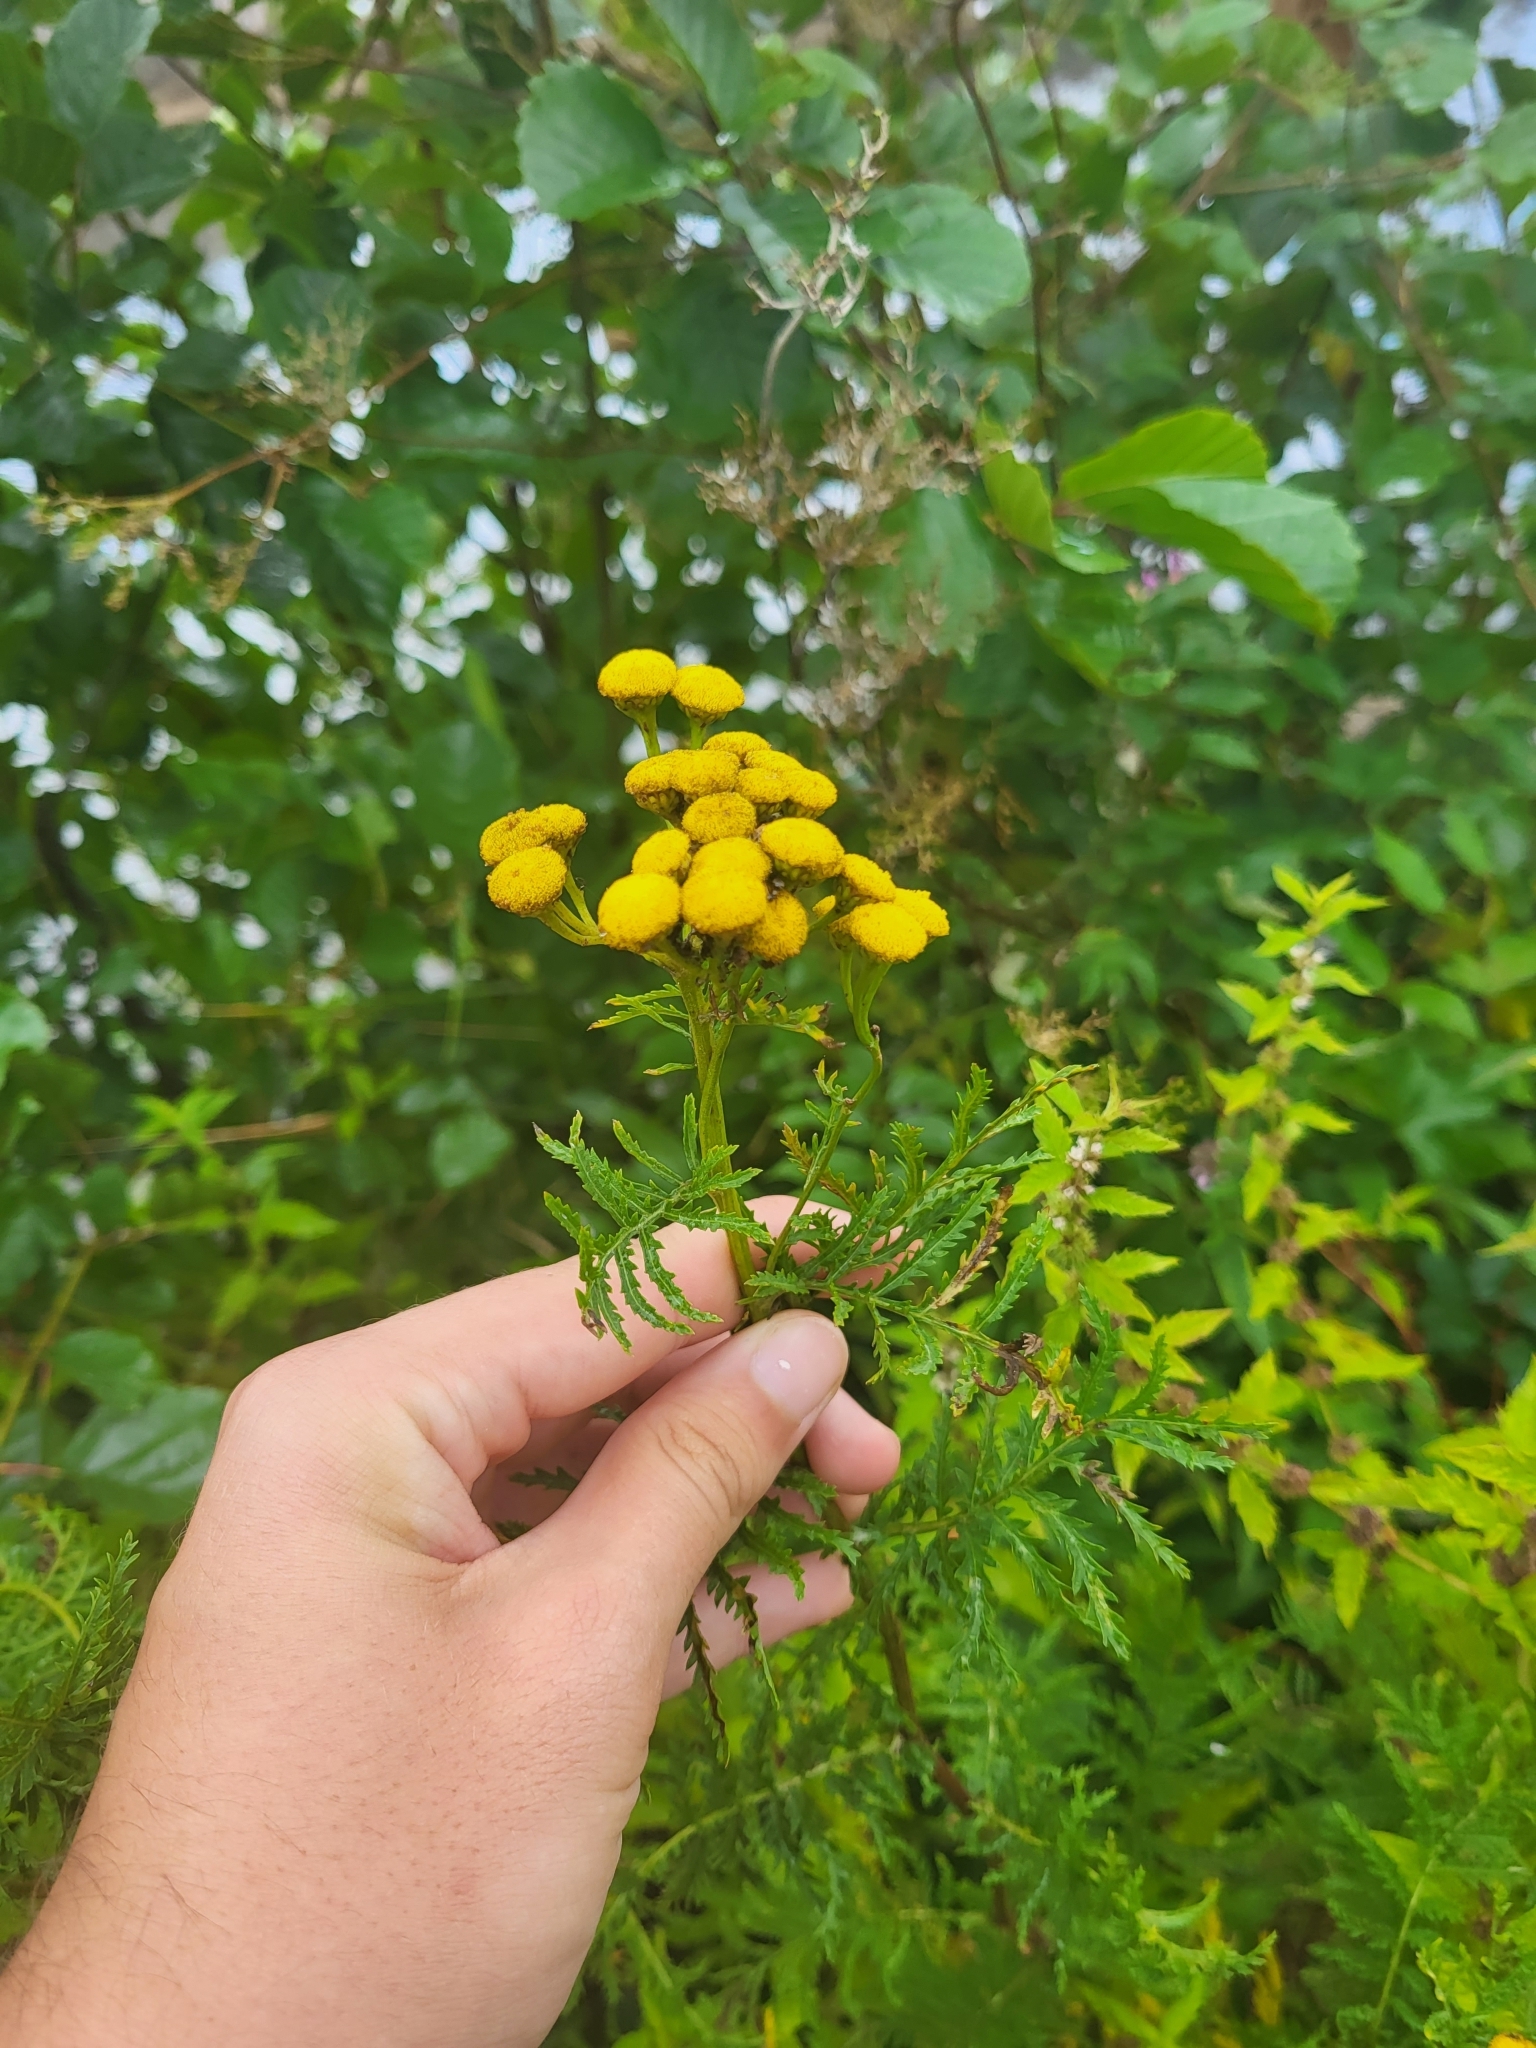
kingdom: Plantae
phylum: Tracheophyta
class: Magnoliopsida
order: Asterales
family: Asteraceae
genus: Tanacetum
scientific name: Tanacetum vulgare
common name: Common tansy
